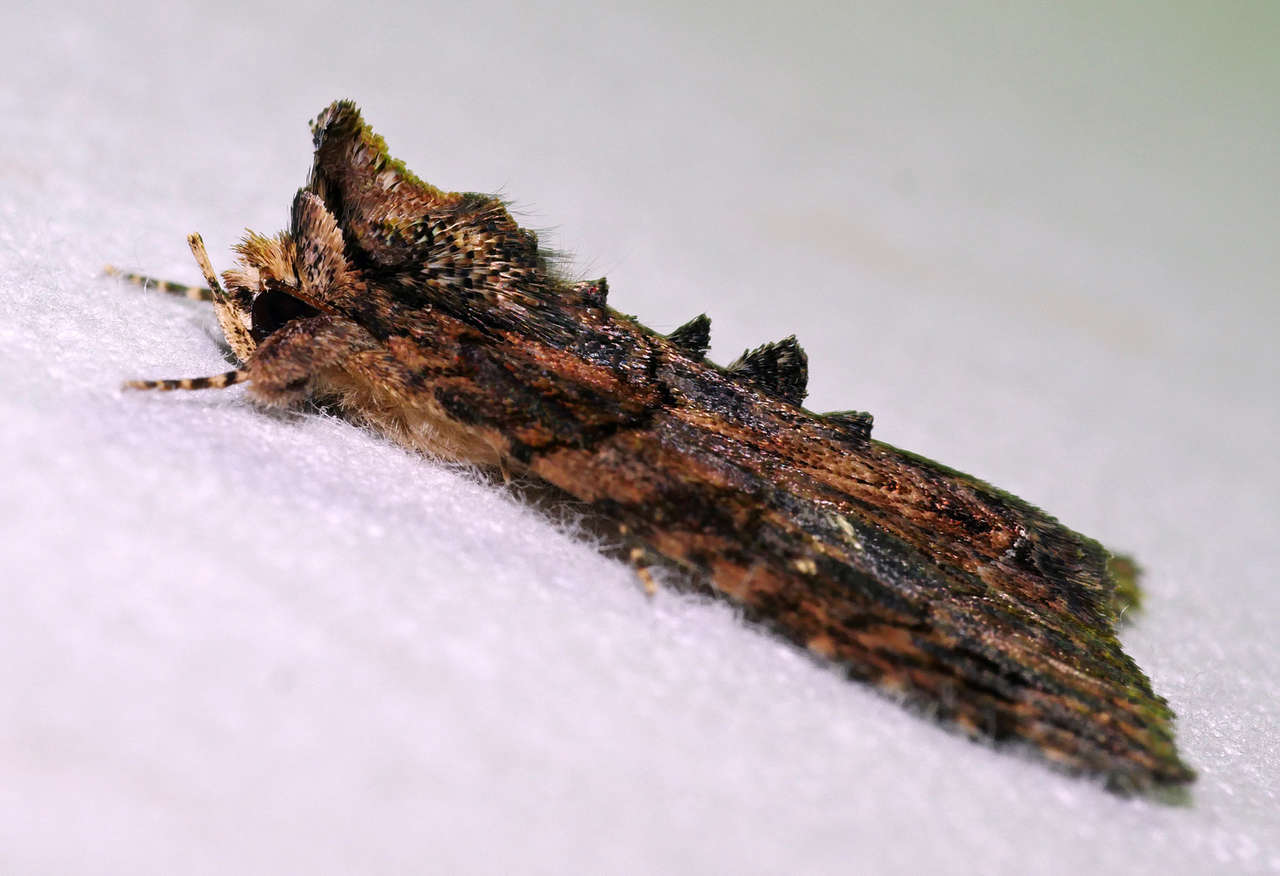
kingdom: Animalia
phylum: Arthropoda
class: Insecta
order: Lepidoptera
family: Erebidae
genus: Crioa
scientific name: Crioa hades
